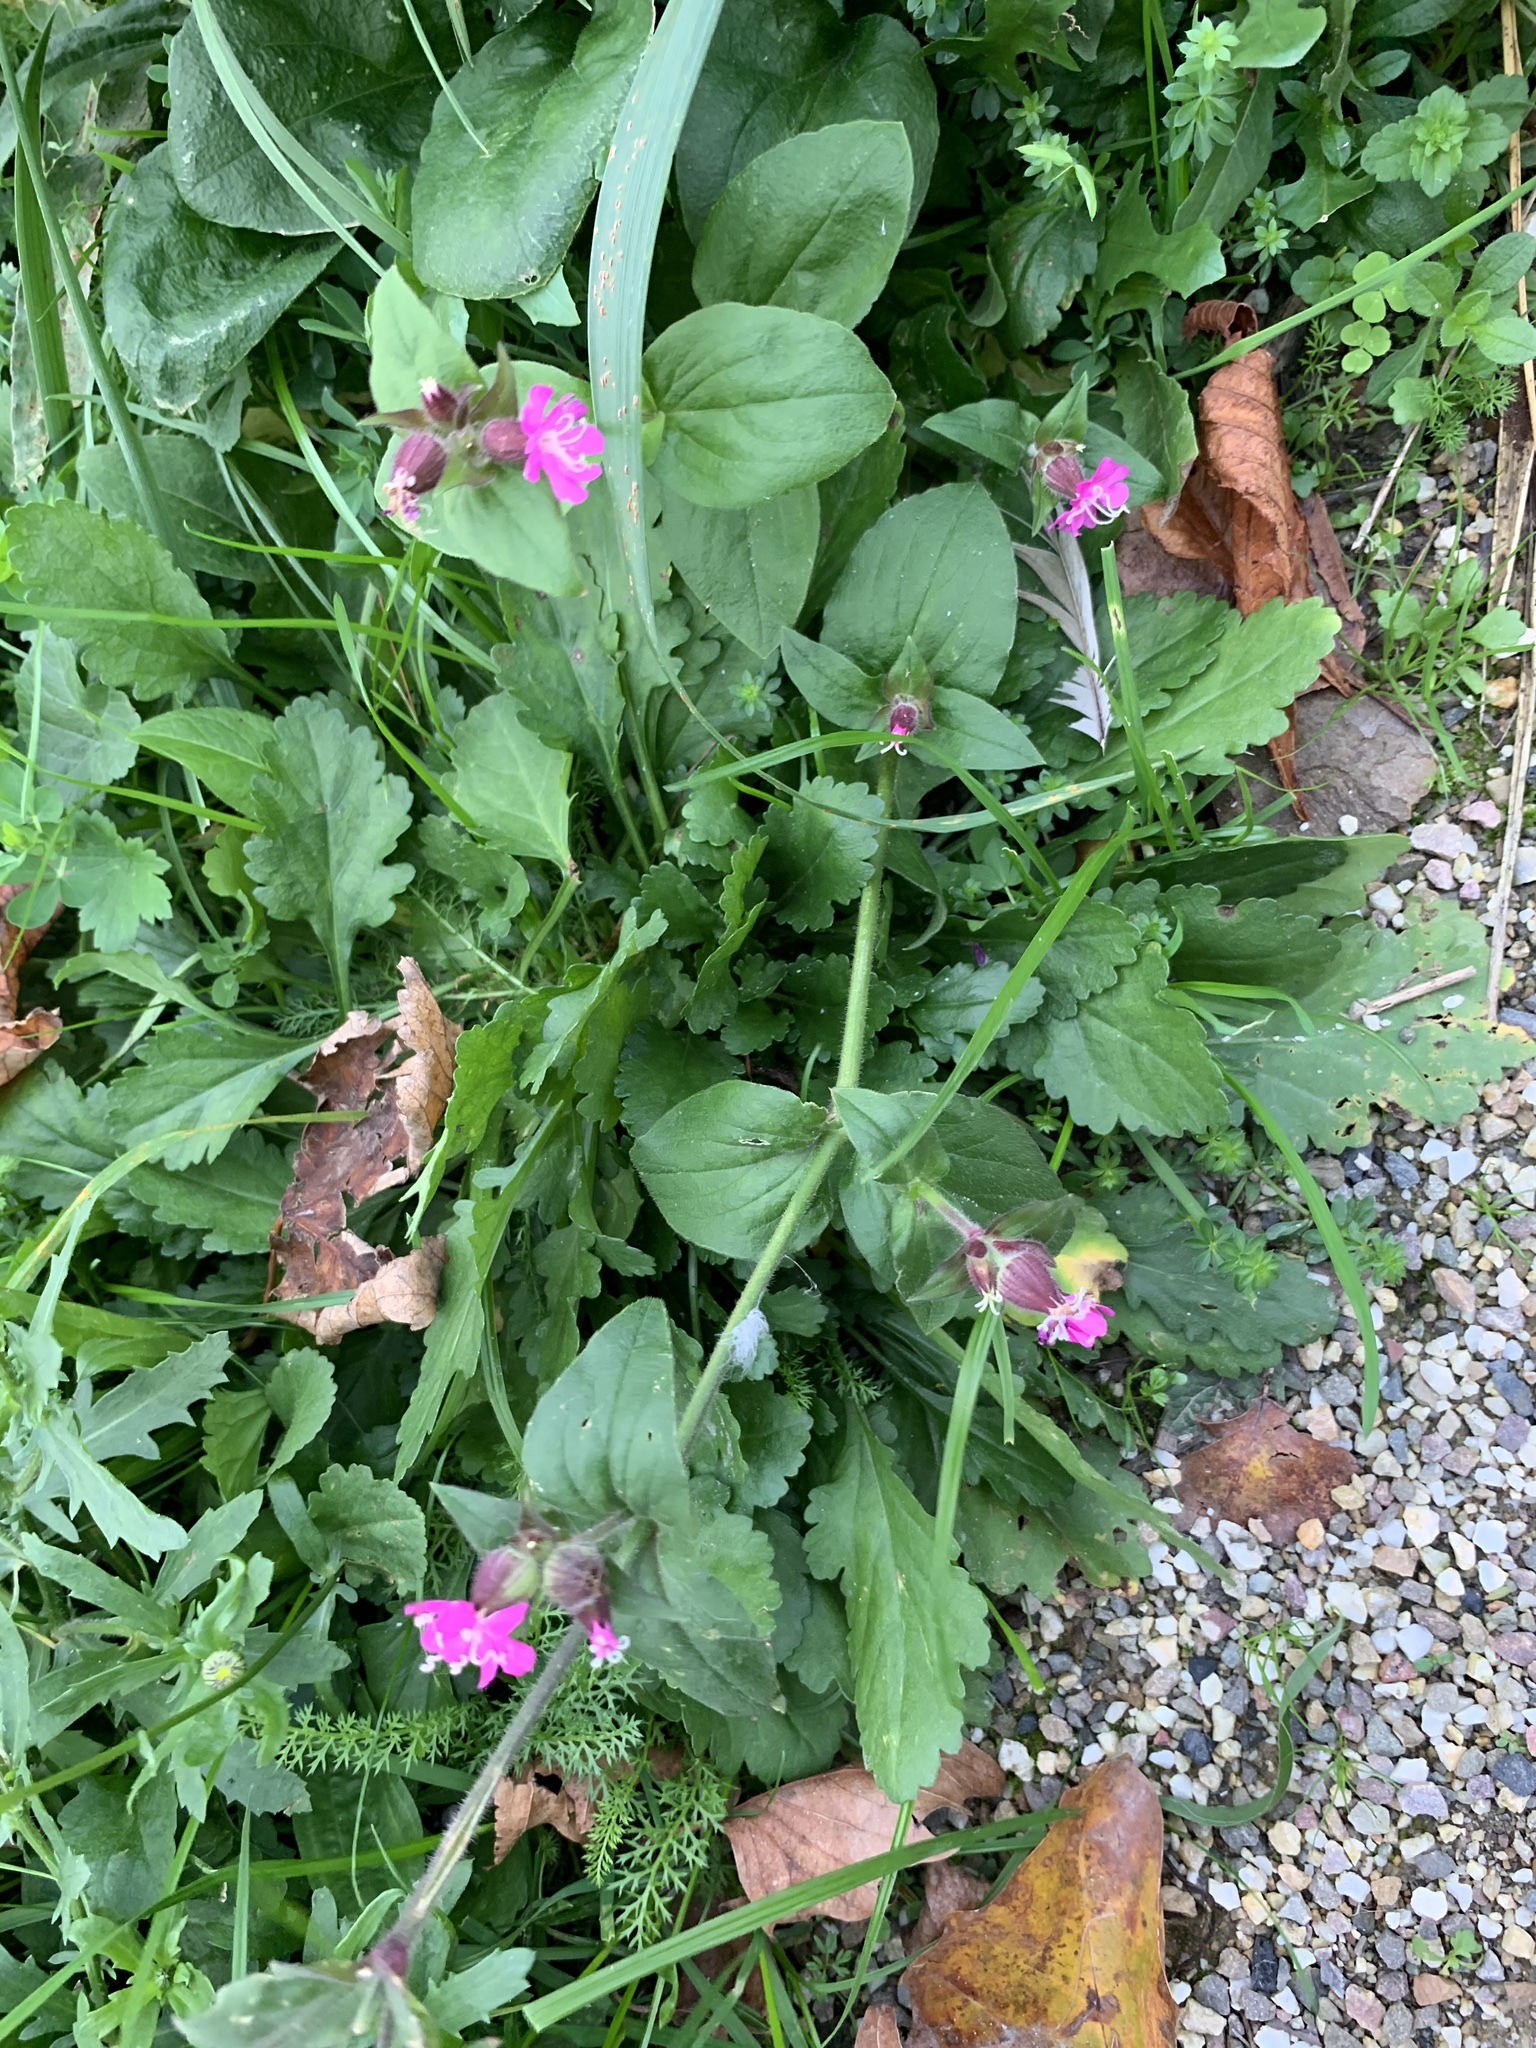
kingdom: Plantae
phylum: Tracheophyta
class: Magnoliopsida
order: Caryophyllales
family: Caryophyllaceae
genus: Silene
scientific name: Silene dioica
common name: Red campion
